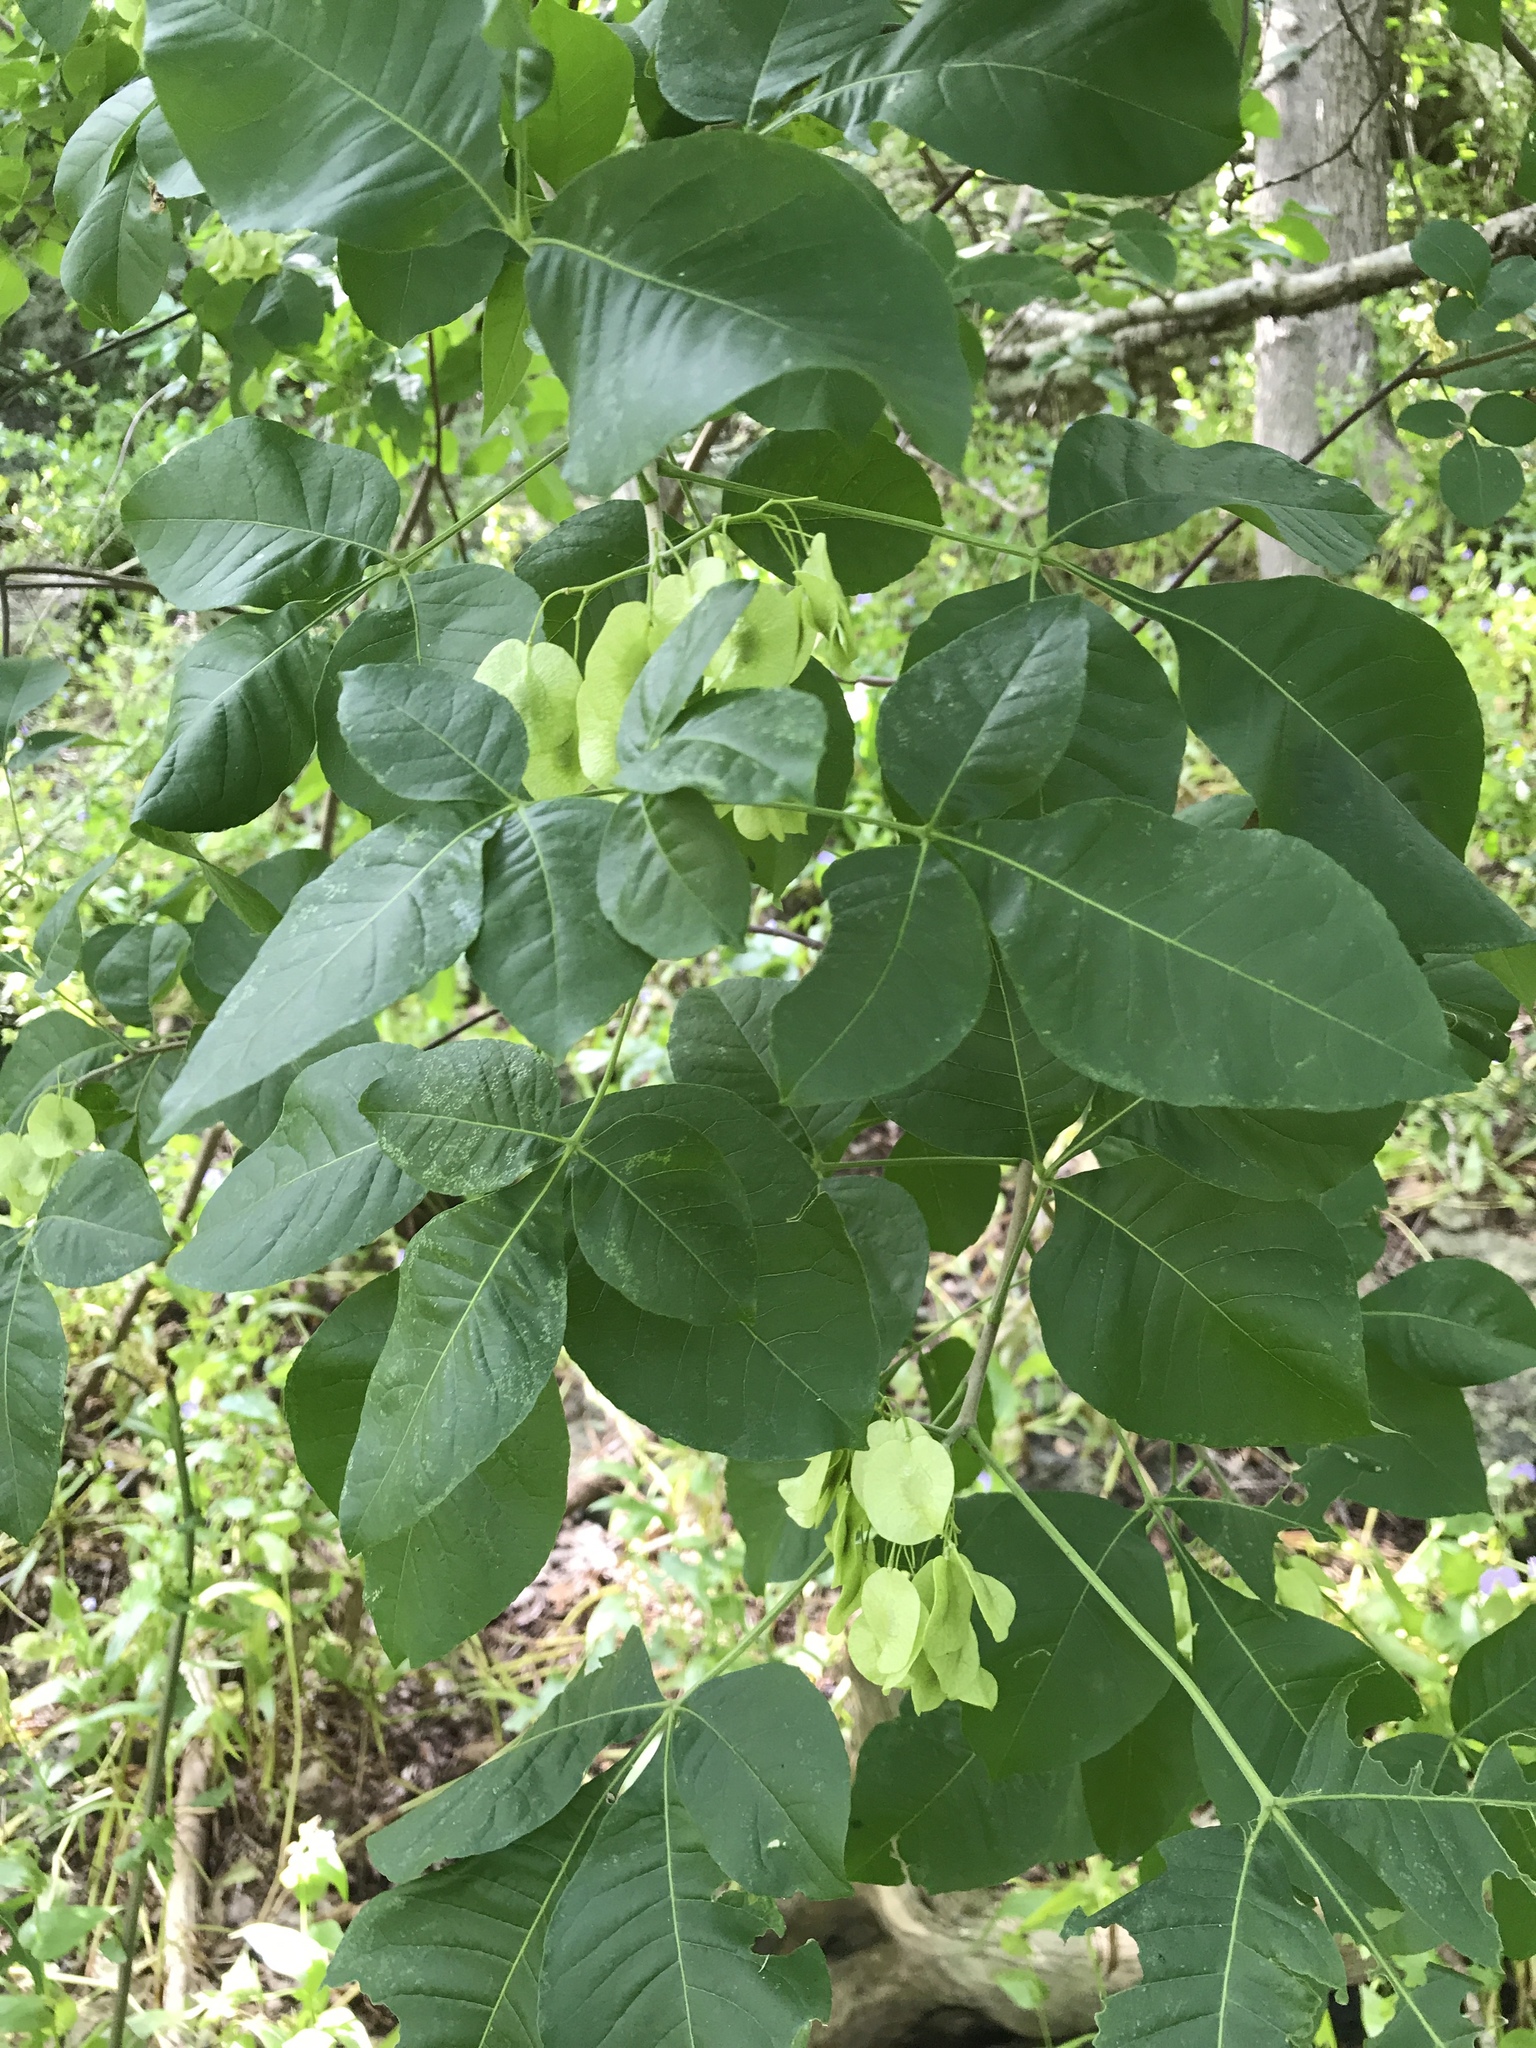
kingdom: Plantae
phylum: Tracheophyta
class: Magnoliopsida
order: Sapindales
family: Rutaceae
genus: Ptelea
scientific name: Ptelea trifoliata
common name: Common hop-tree
